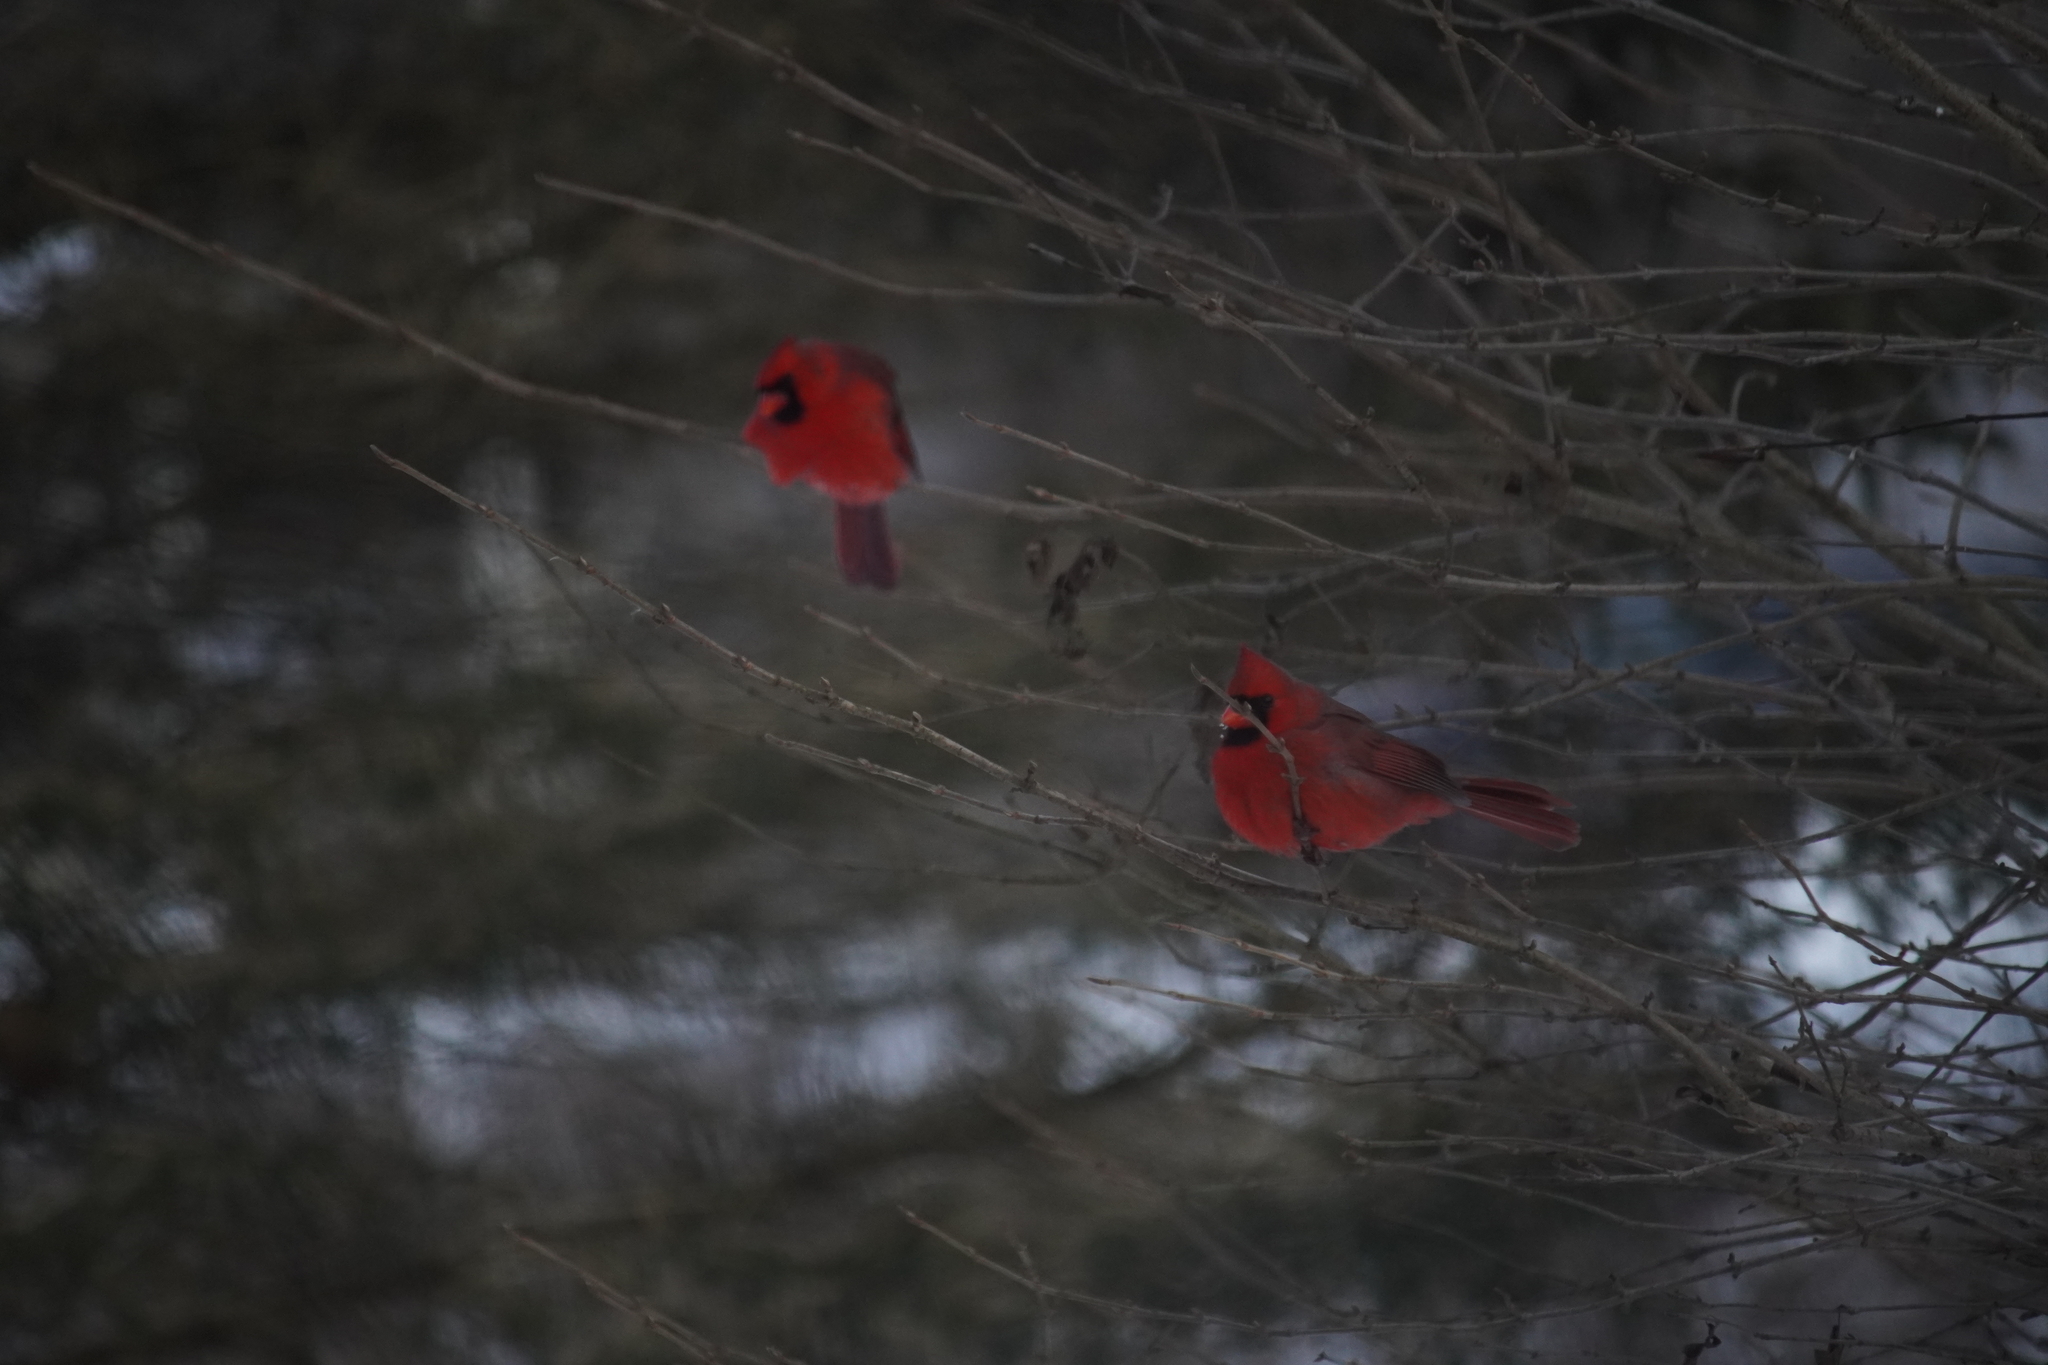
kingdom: Animalia
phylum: Chordata
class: Aves
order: Passeriformes
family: Cardinalidae
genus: Cardinalis
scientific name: Cardinalis cardinalis
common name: Northern cardinal
